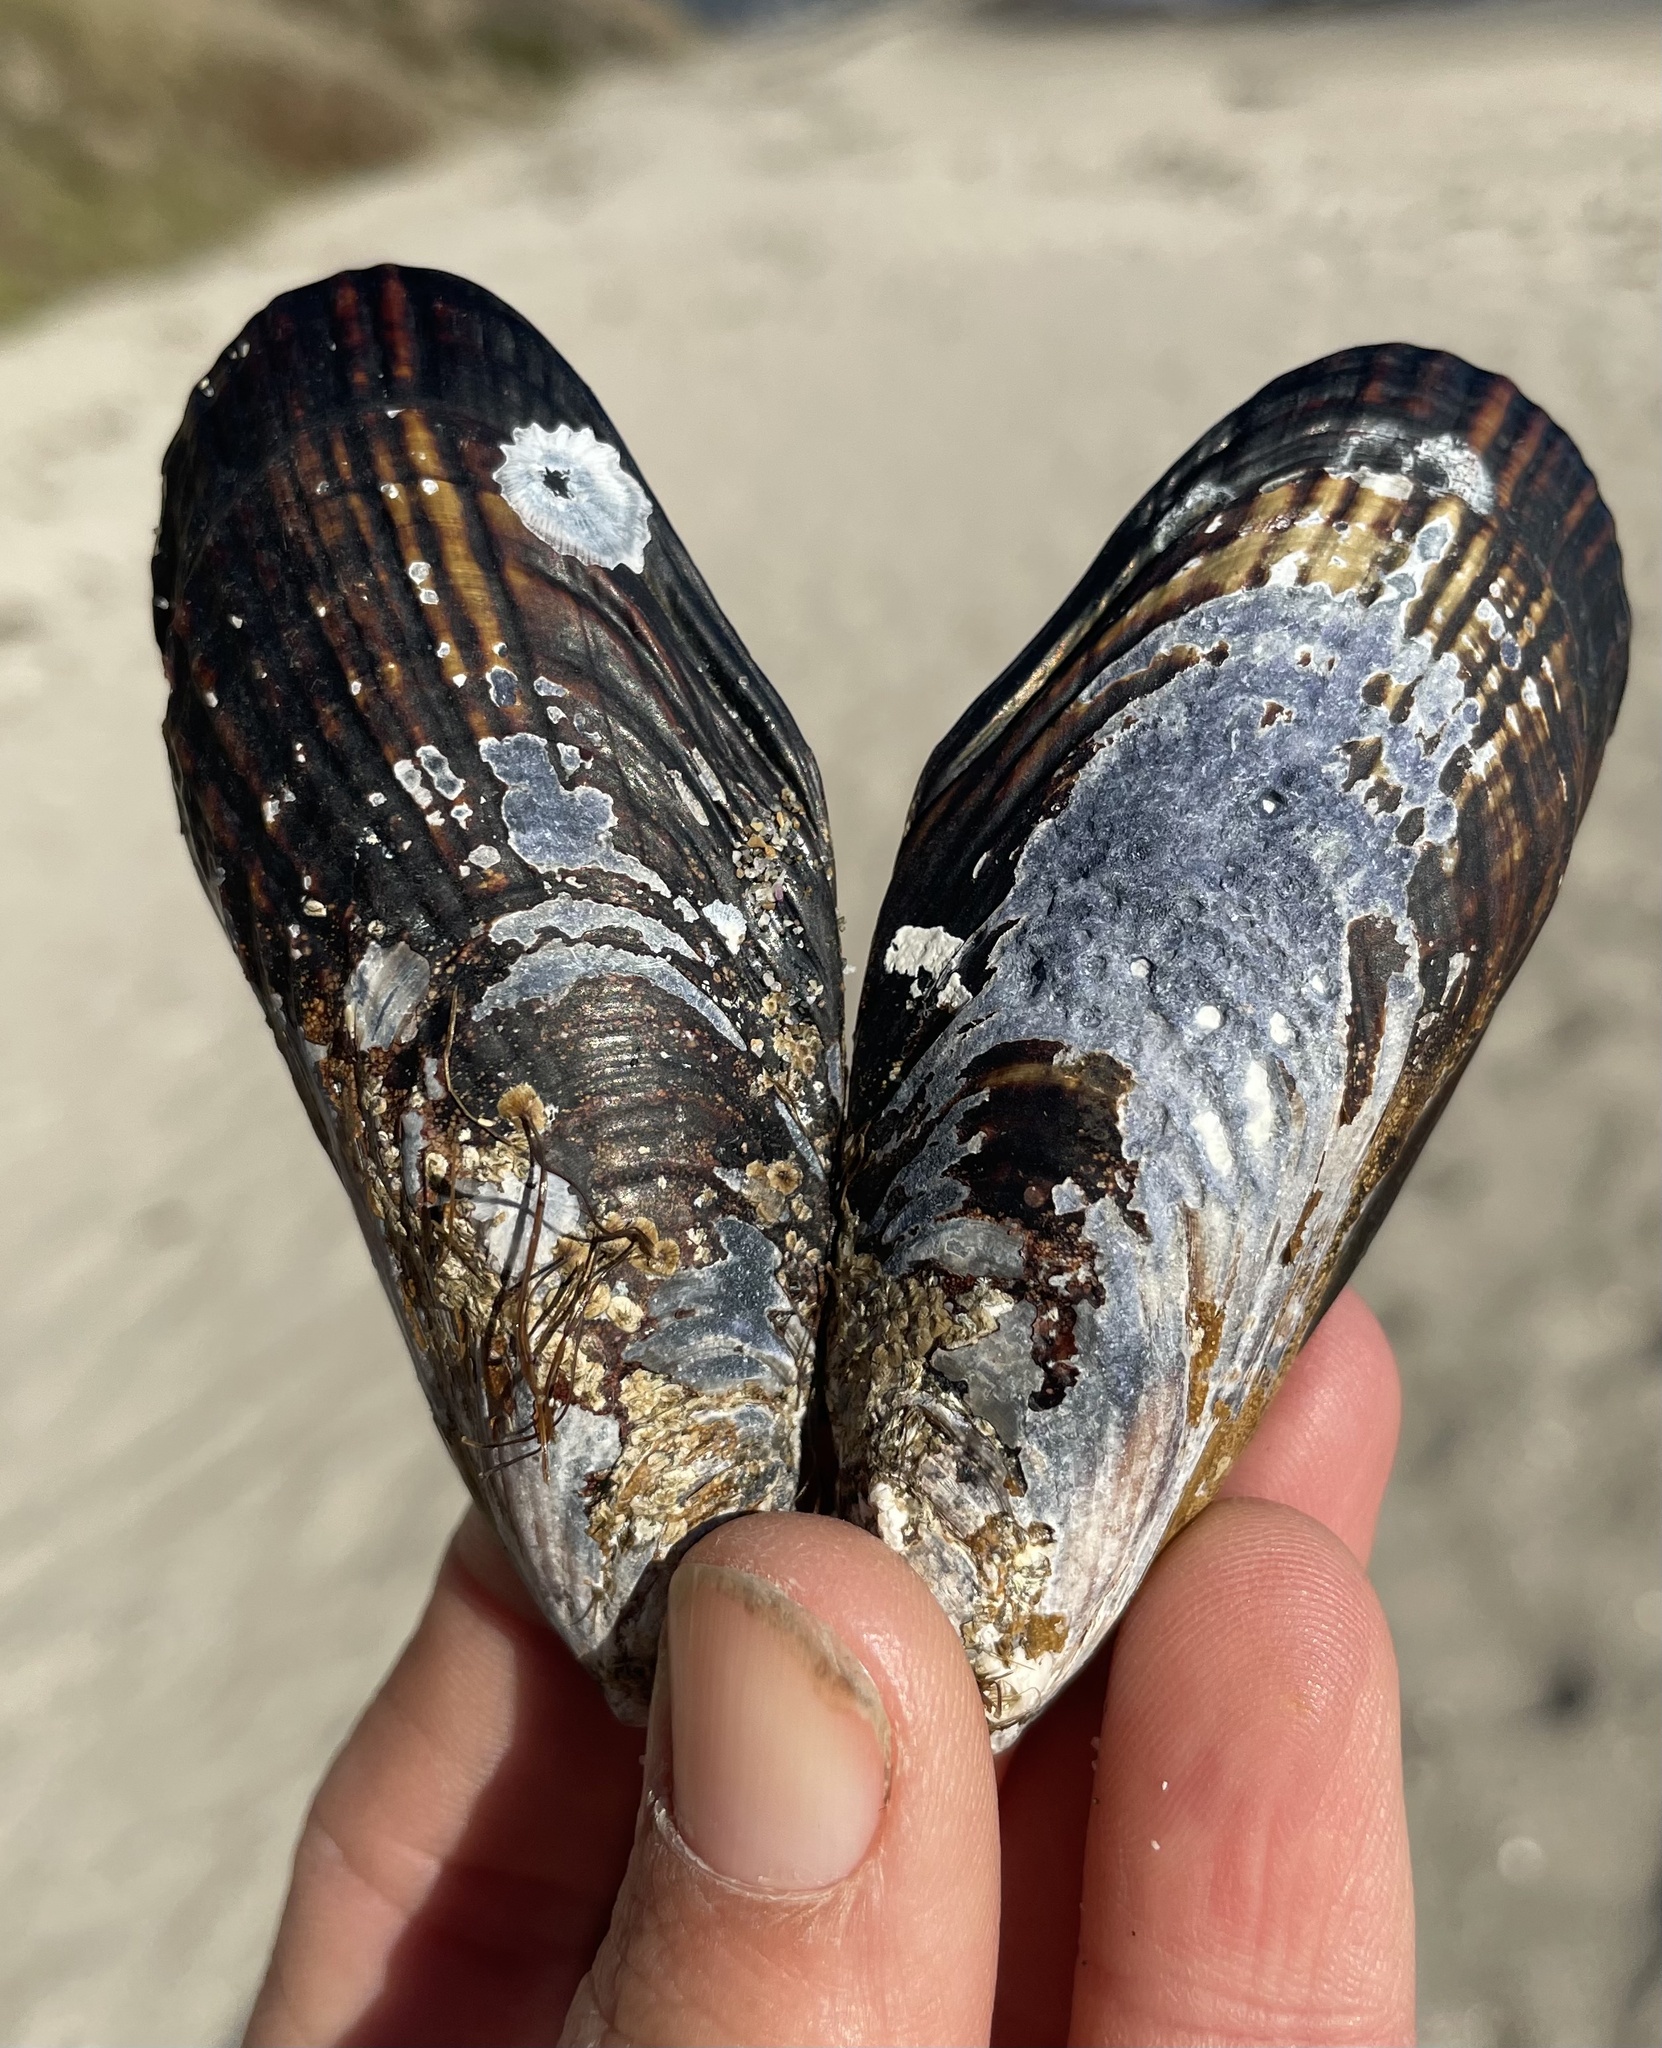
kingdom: Animalia
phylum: Mollusca
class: Bivalvia
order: Mytilida
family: Mytilidae
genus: Mytilus
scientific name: Mytilus californianus
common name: California mussel
